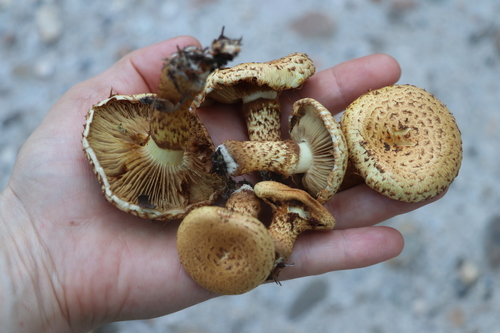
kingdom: Fungi
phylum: Basidiomycota
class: Agaricomycetes
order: Agaricales
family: Strophariaceae
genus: Pholiota
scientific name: Pholiota squarrosa
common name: Shaggy pholiota
